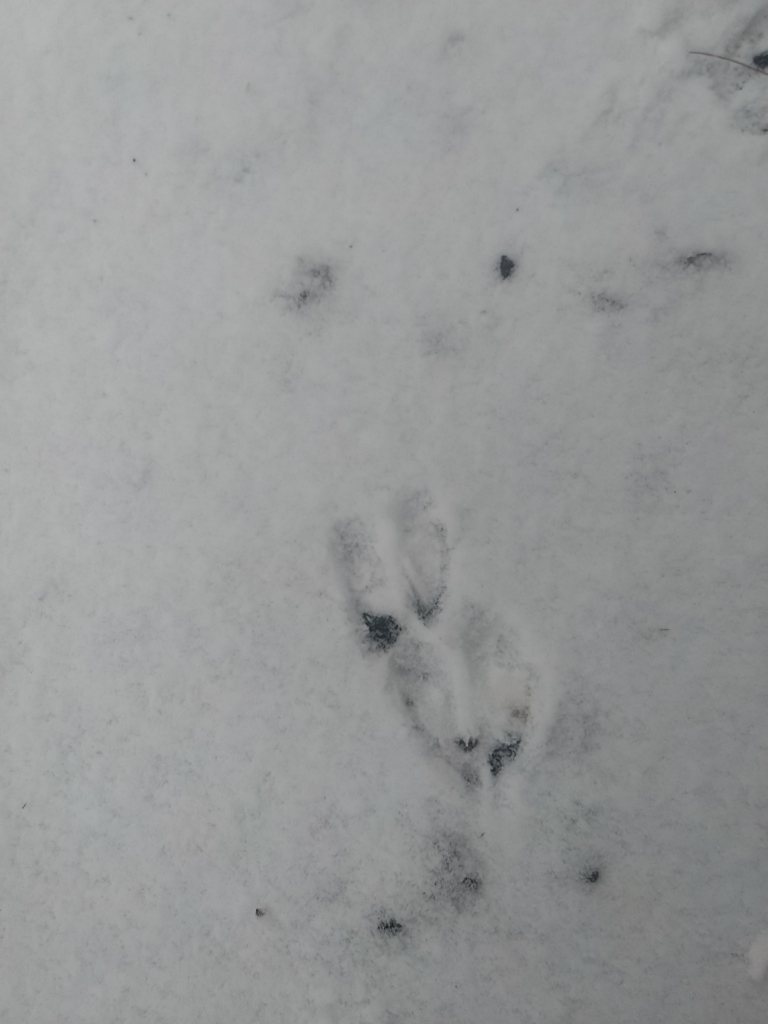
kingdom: Animalia
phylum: Chordata
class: Mammalia
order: Artiodactyla
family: Cervidae
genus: Odocoileus
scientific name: Odocoileus virginianus
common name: White-tailed deer
